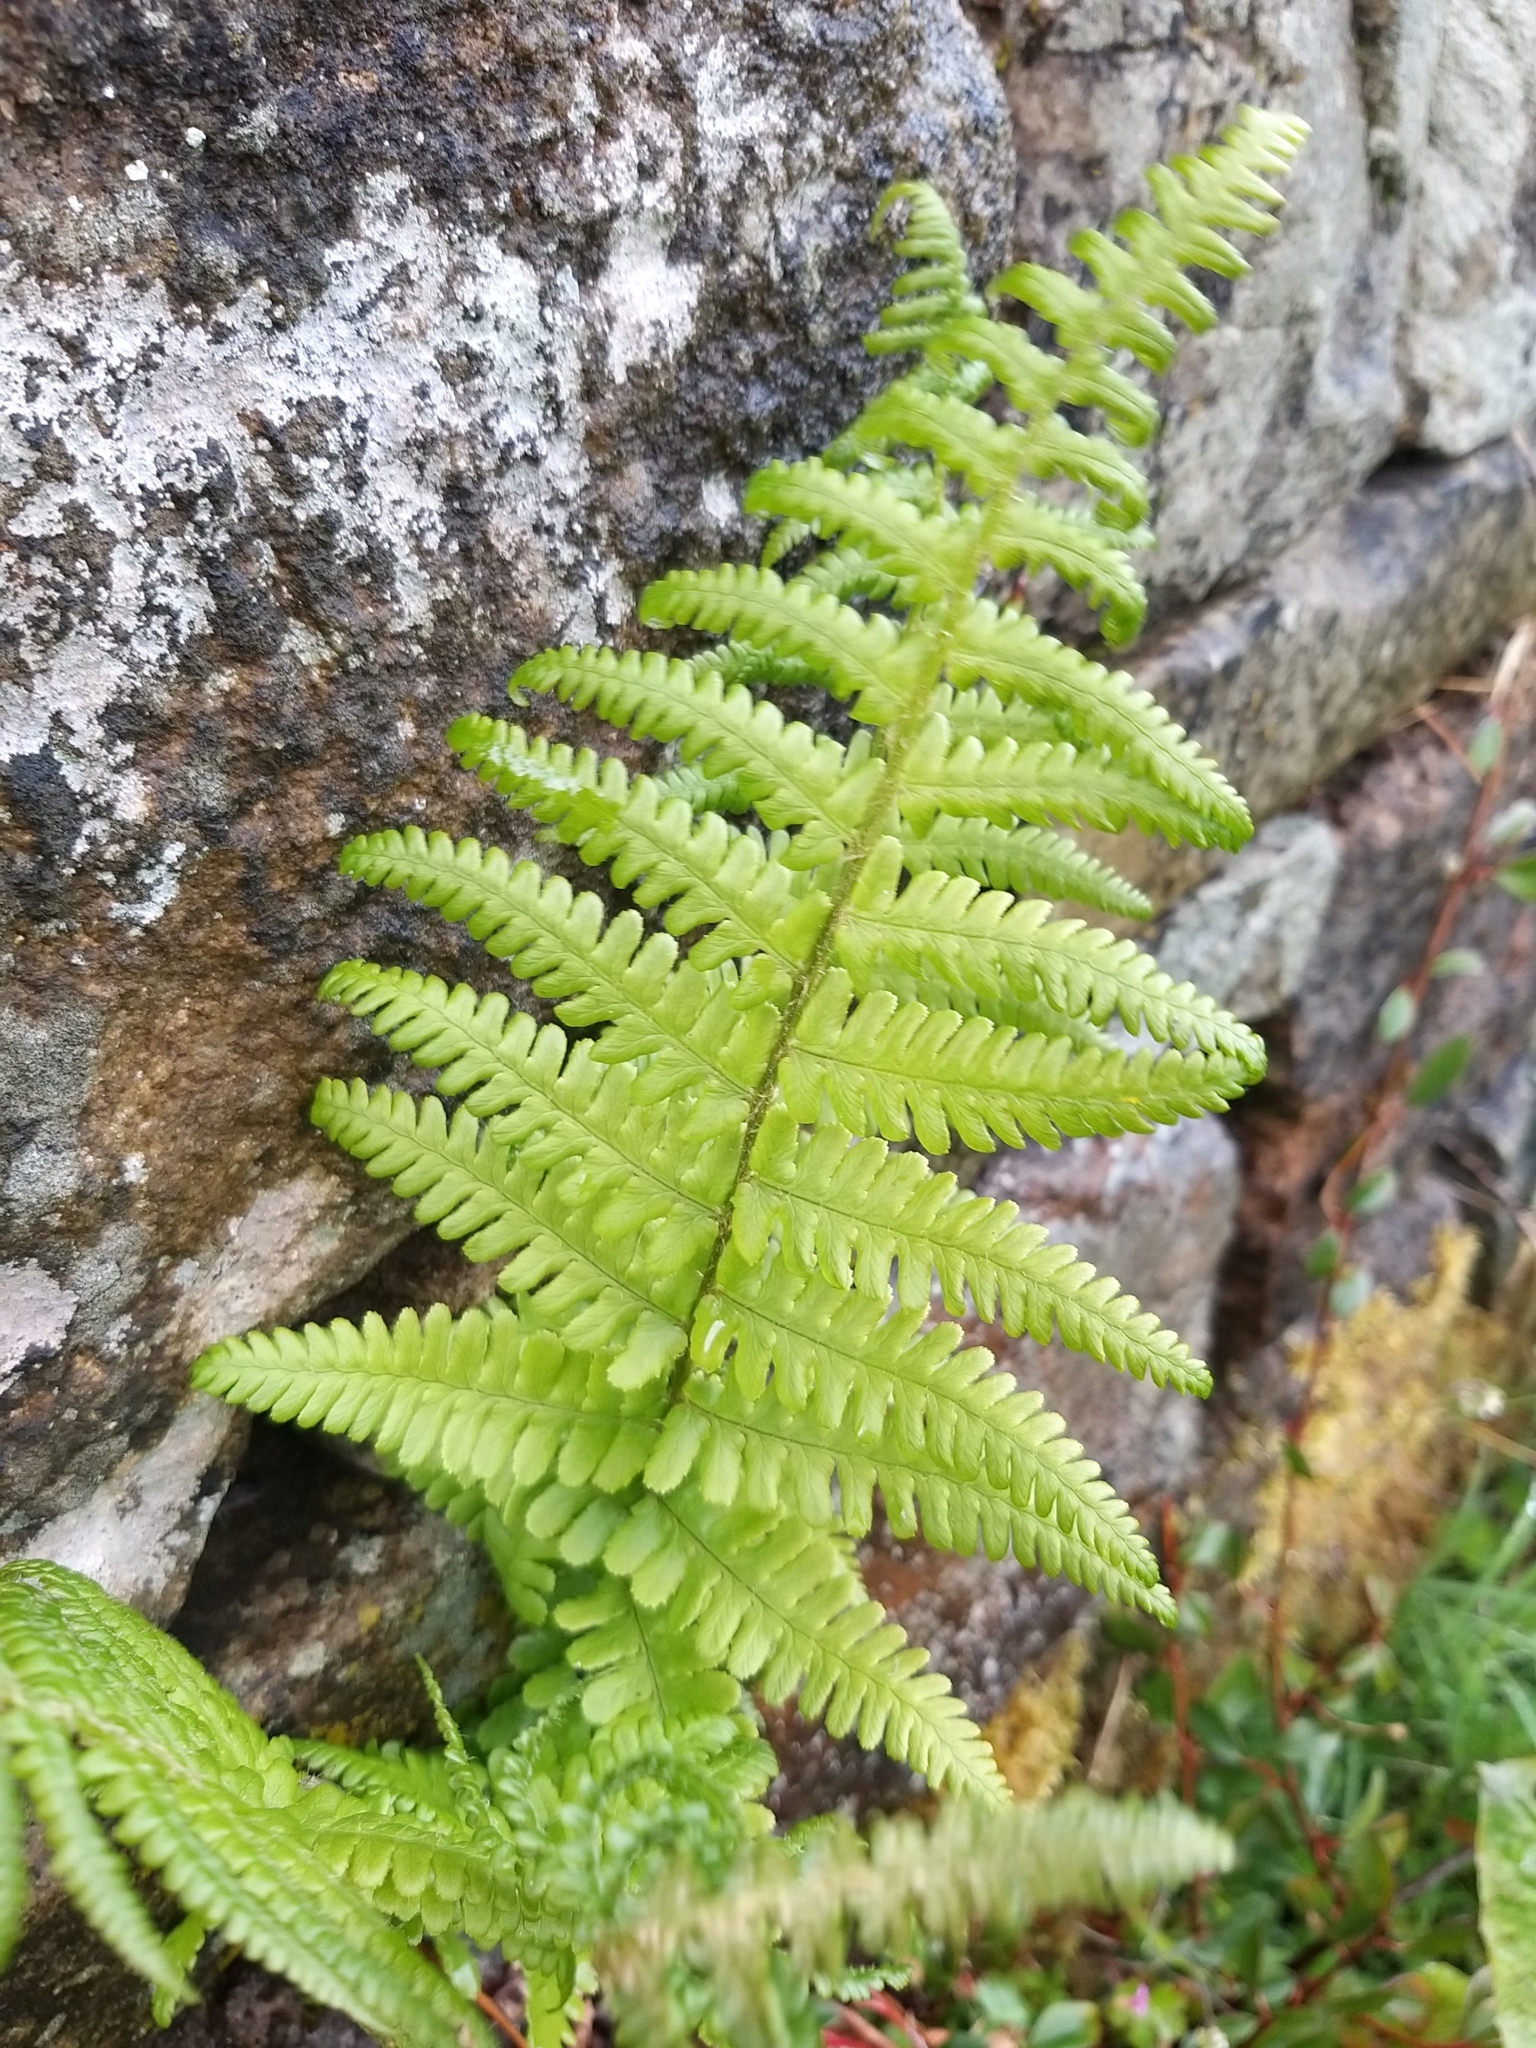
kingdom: Plantae
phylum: Tracheophyta
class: Polypodiopsida
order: Polypodiales
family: Dryopteridaceae
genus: Dryopteris
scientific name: Dryopteris filix-mas
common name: Male fern
